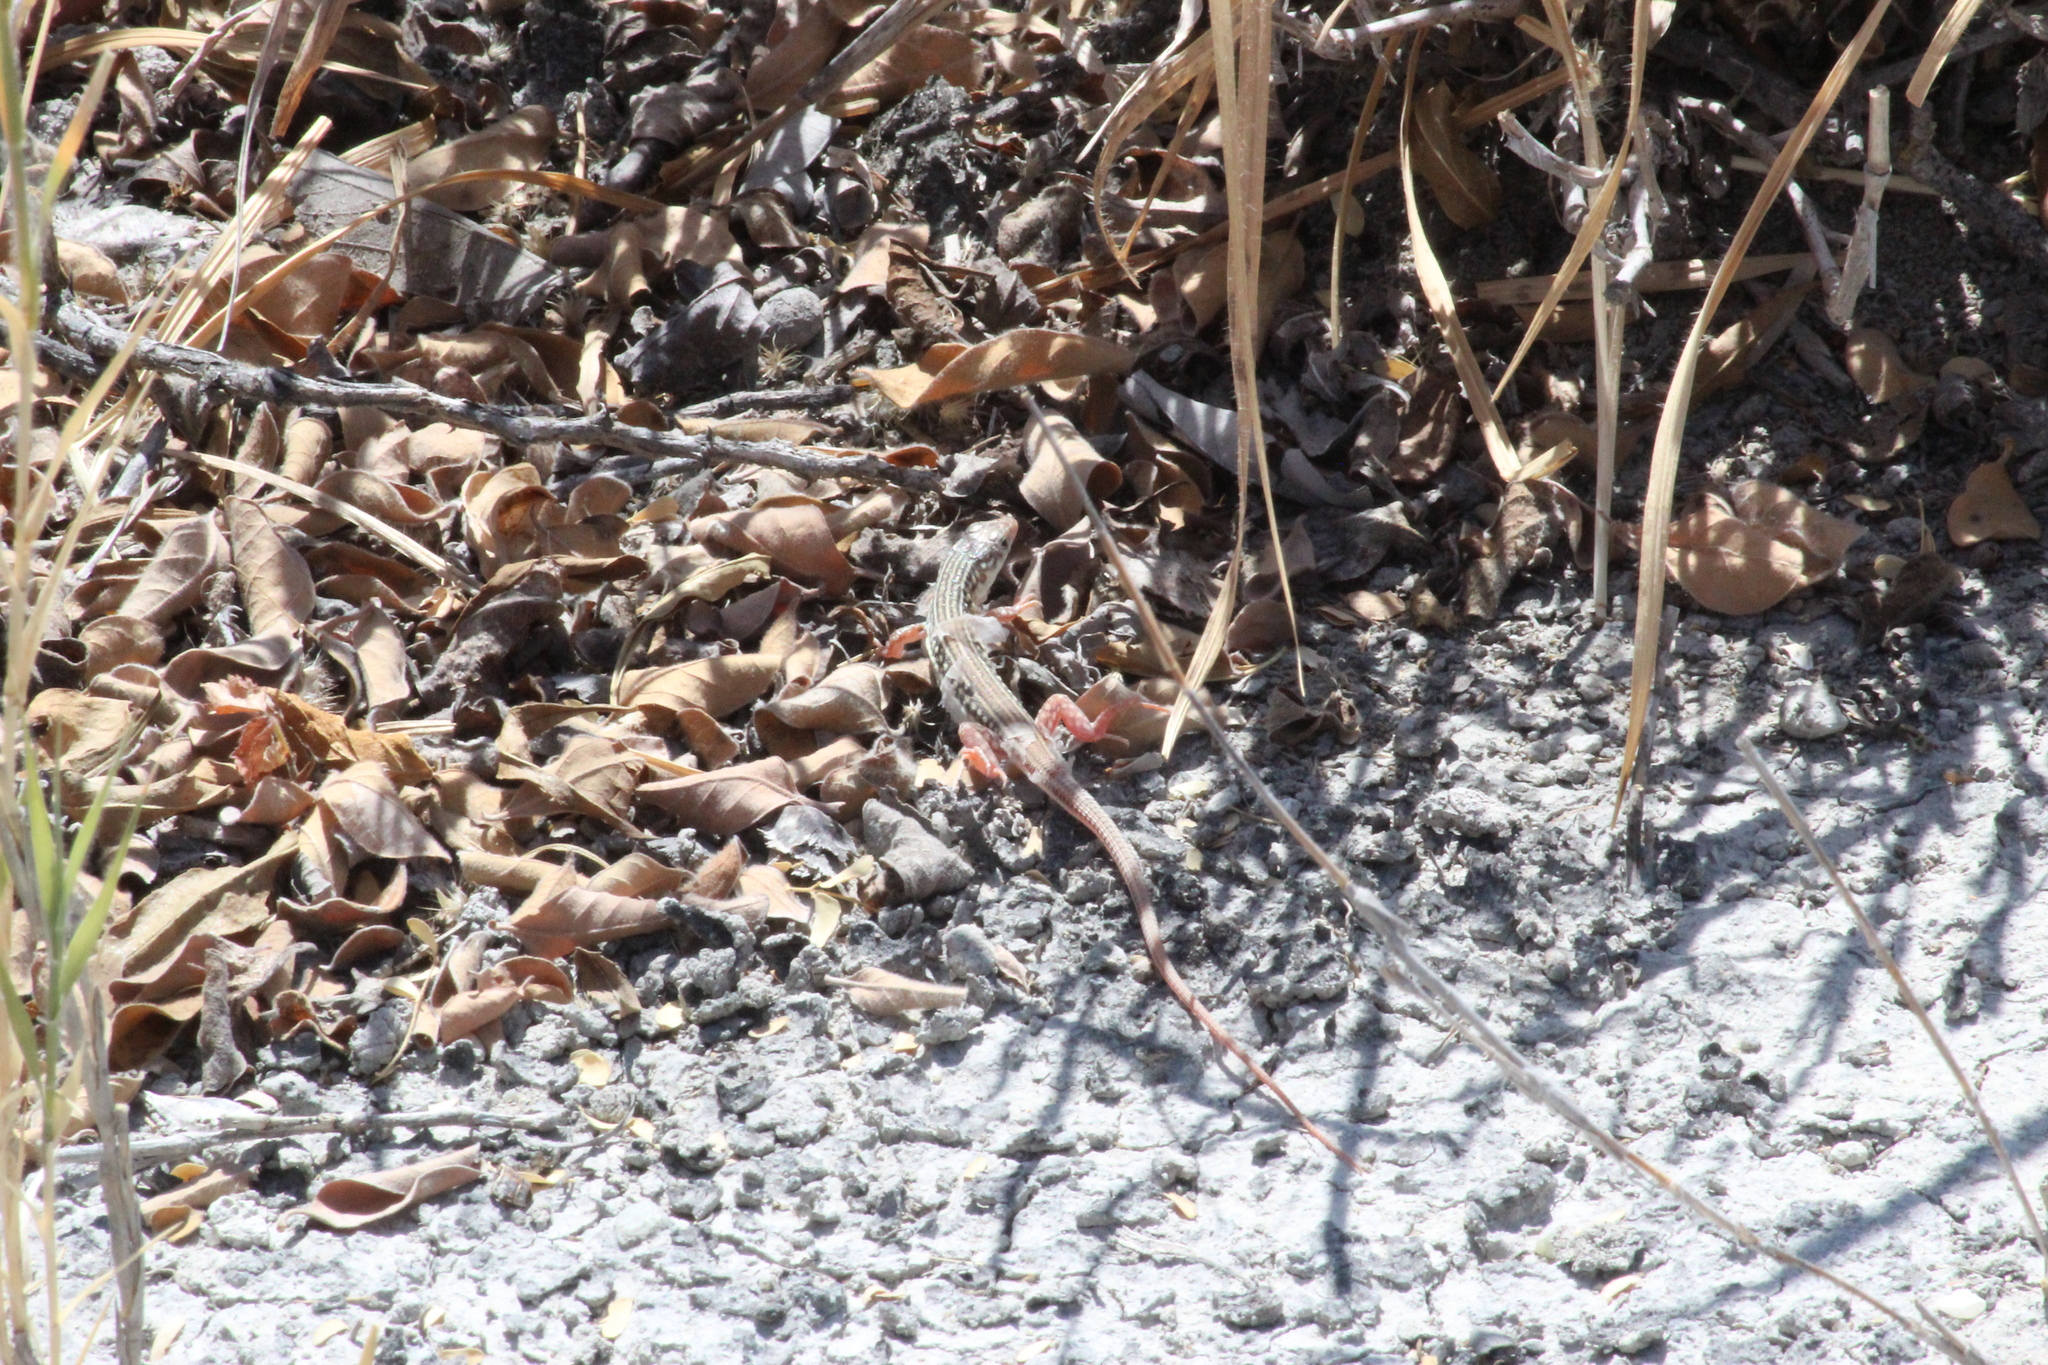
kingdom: Animalia
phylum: Chordata
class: Squamata
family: Lacertidae
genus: Nucras
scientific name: Nucras holubi
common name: Holub's sandveld lizard
